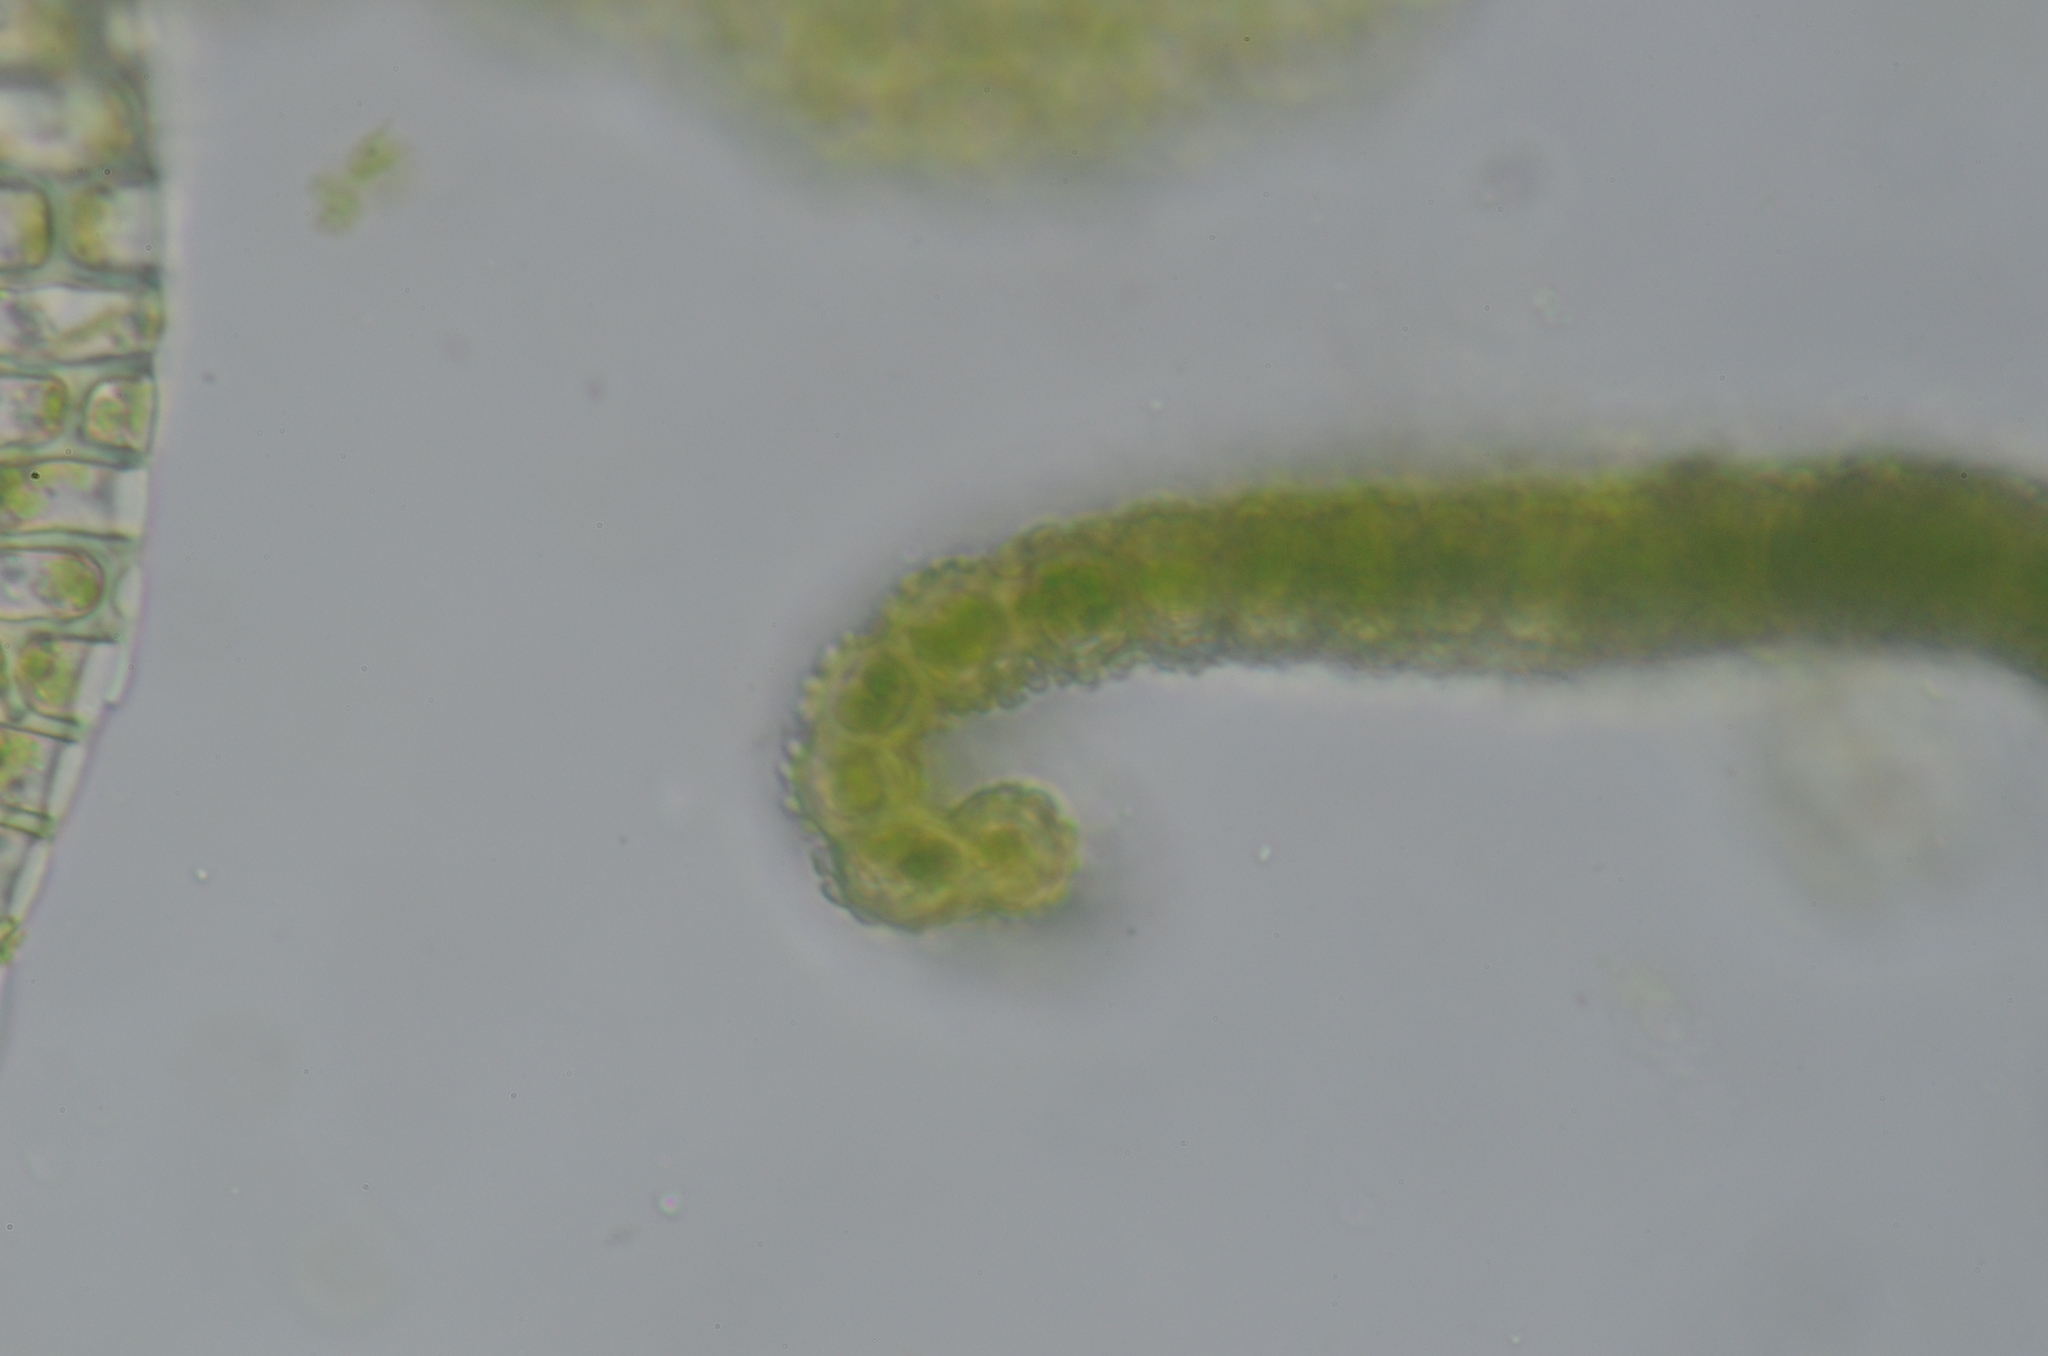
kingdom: Plantae
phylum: Bryophyta
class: Bryopsida
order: Pottiales
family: Pottiaceae
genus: Barbula
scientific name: Barbula unguiculata
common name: Prickly beard moss
